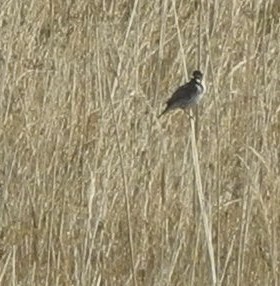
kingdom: Animalia
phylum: Chordata
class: Aves
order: Passeriformes
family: Emberizidae
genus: Emberiza
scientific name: Emberiza schoeniclus
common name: Reed bunting
